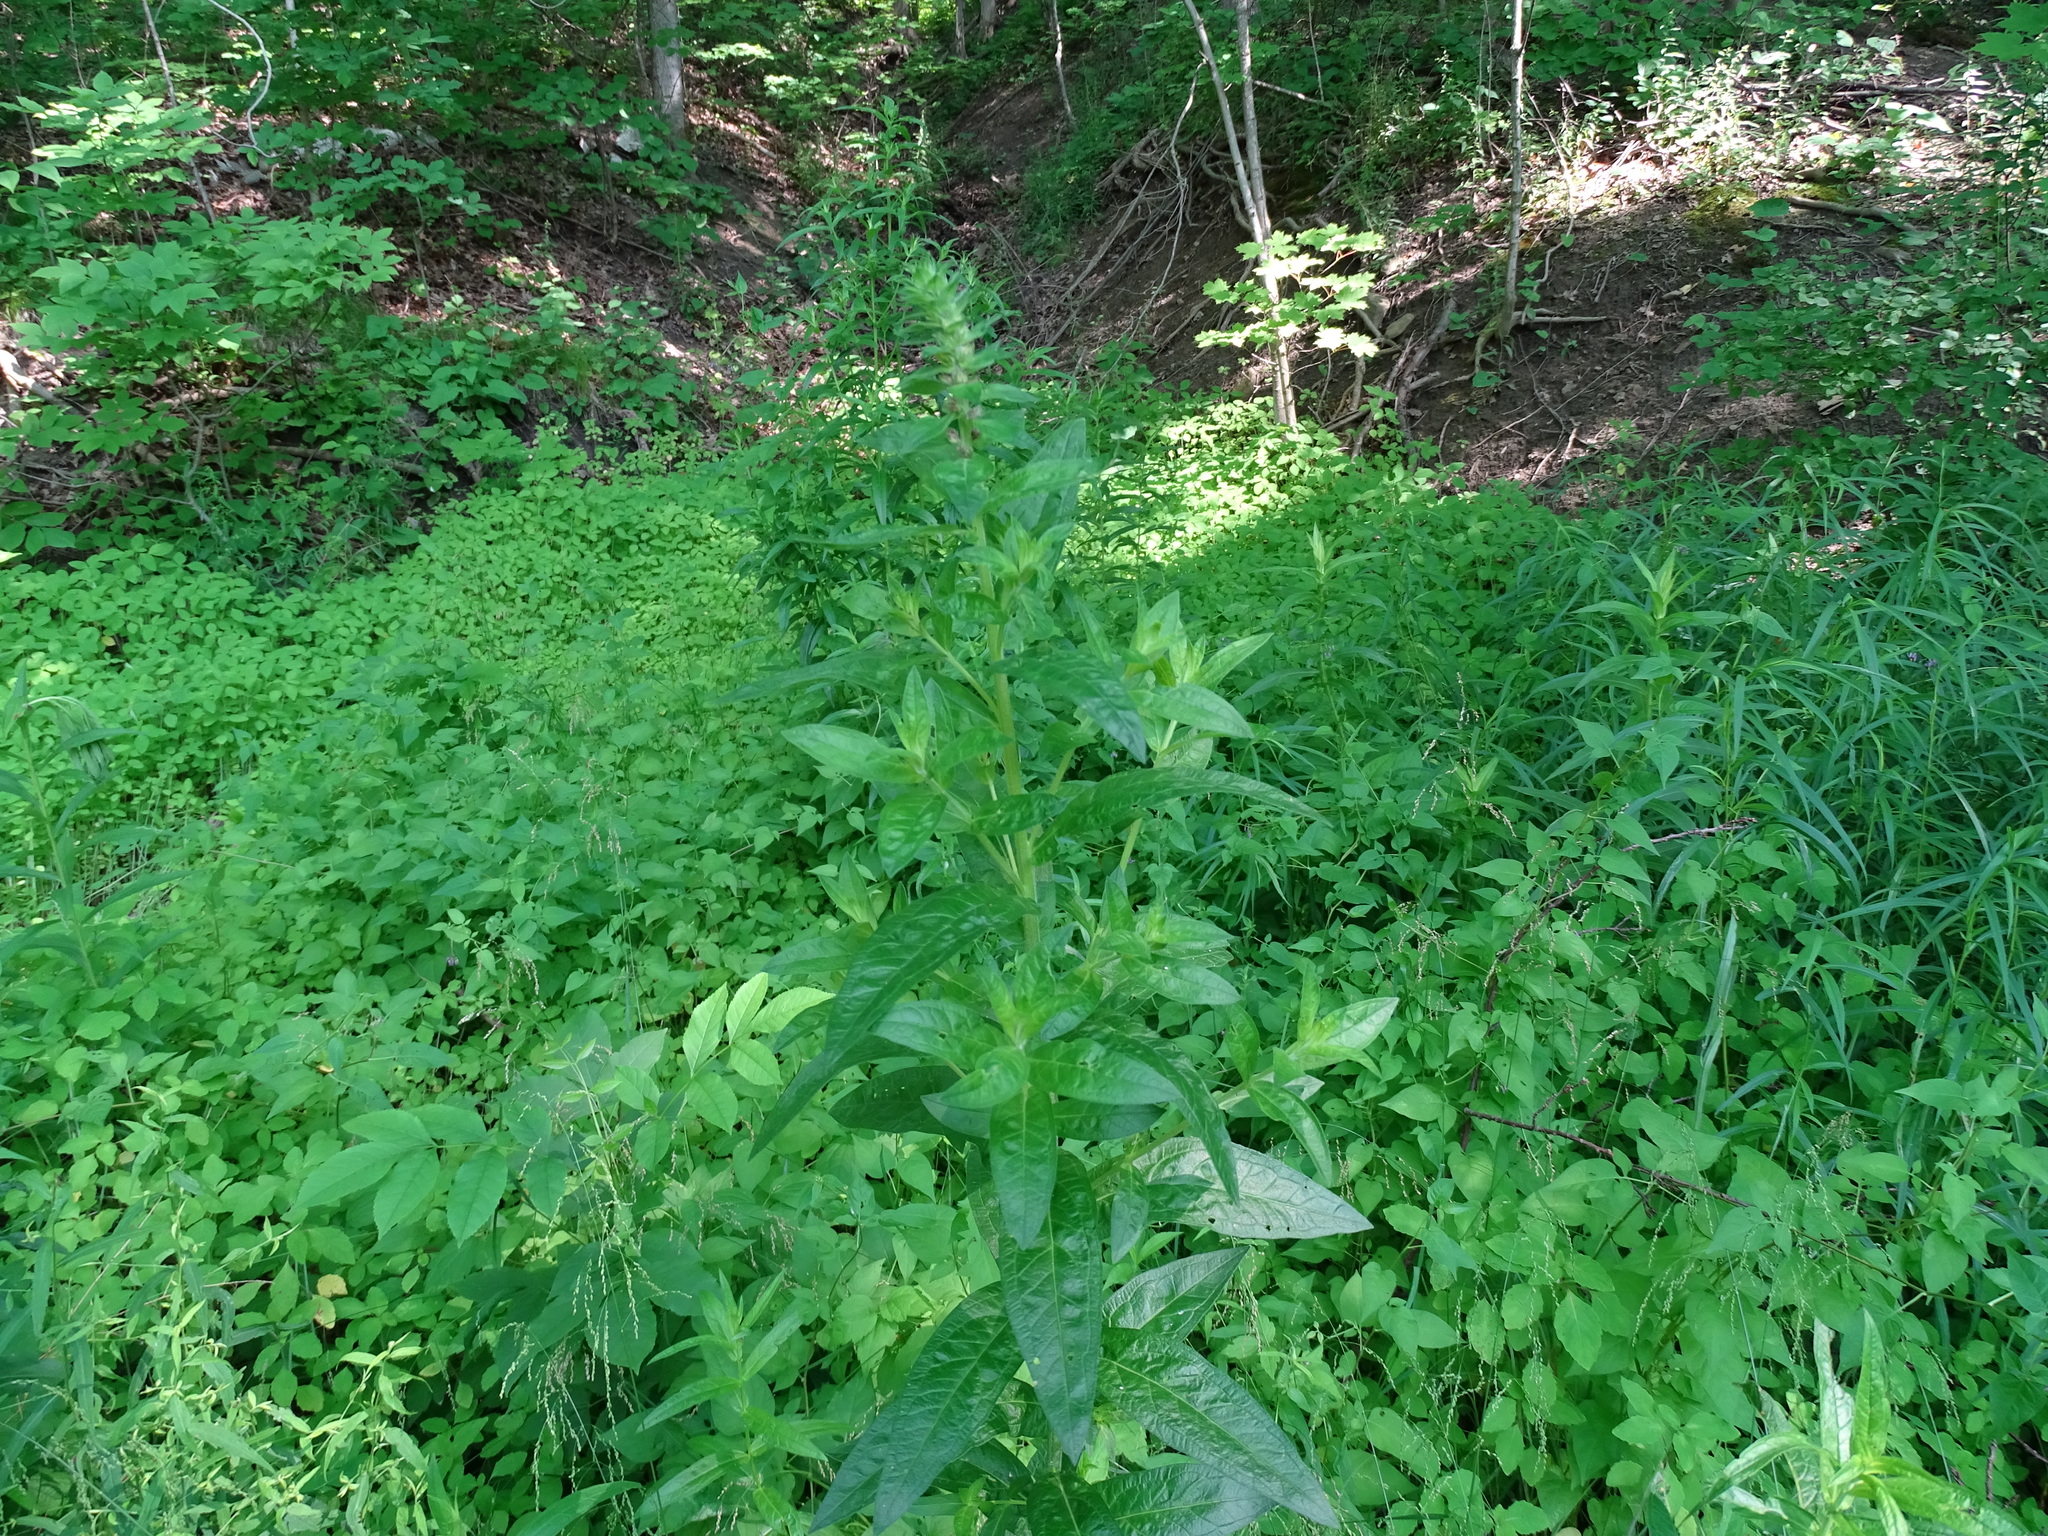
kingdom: Plantae
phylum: Tracheophyta
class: Magnoliopsida
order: Myrtales
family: Lythraceae
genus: Lythrum
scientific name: Lythrum salicaria
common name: Purple loosestrife
